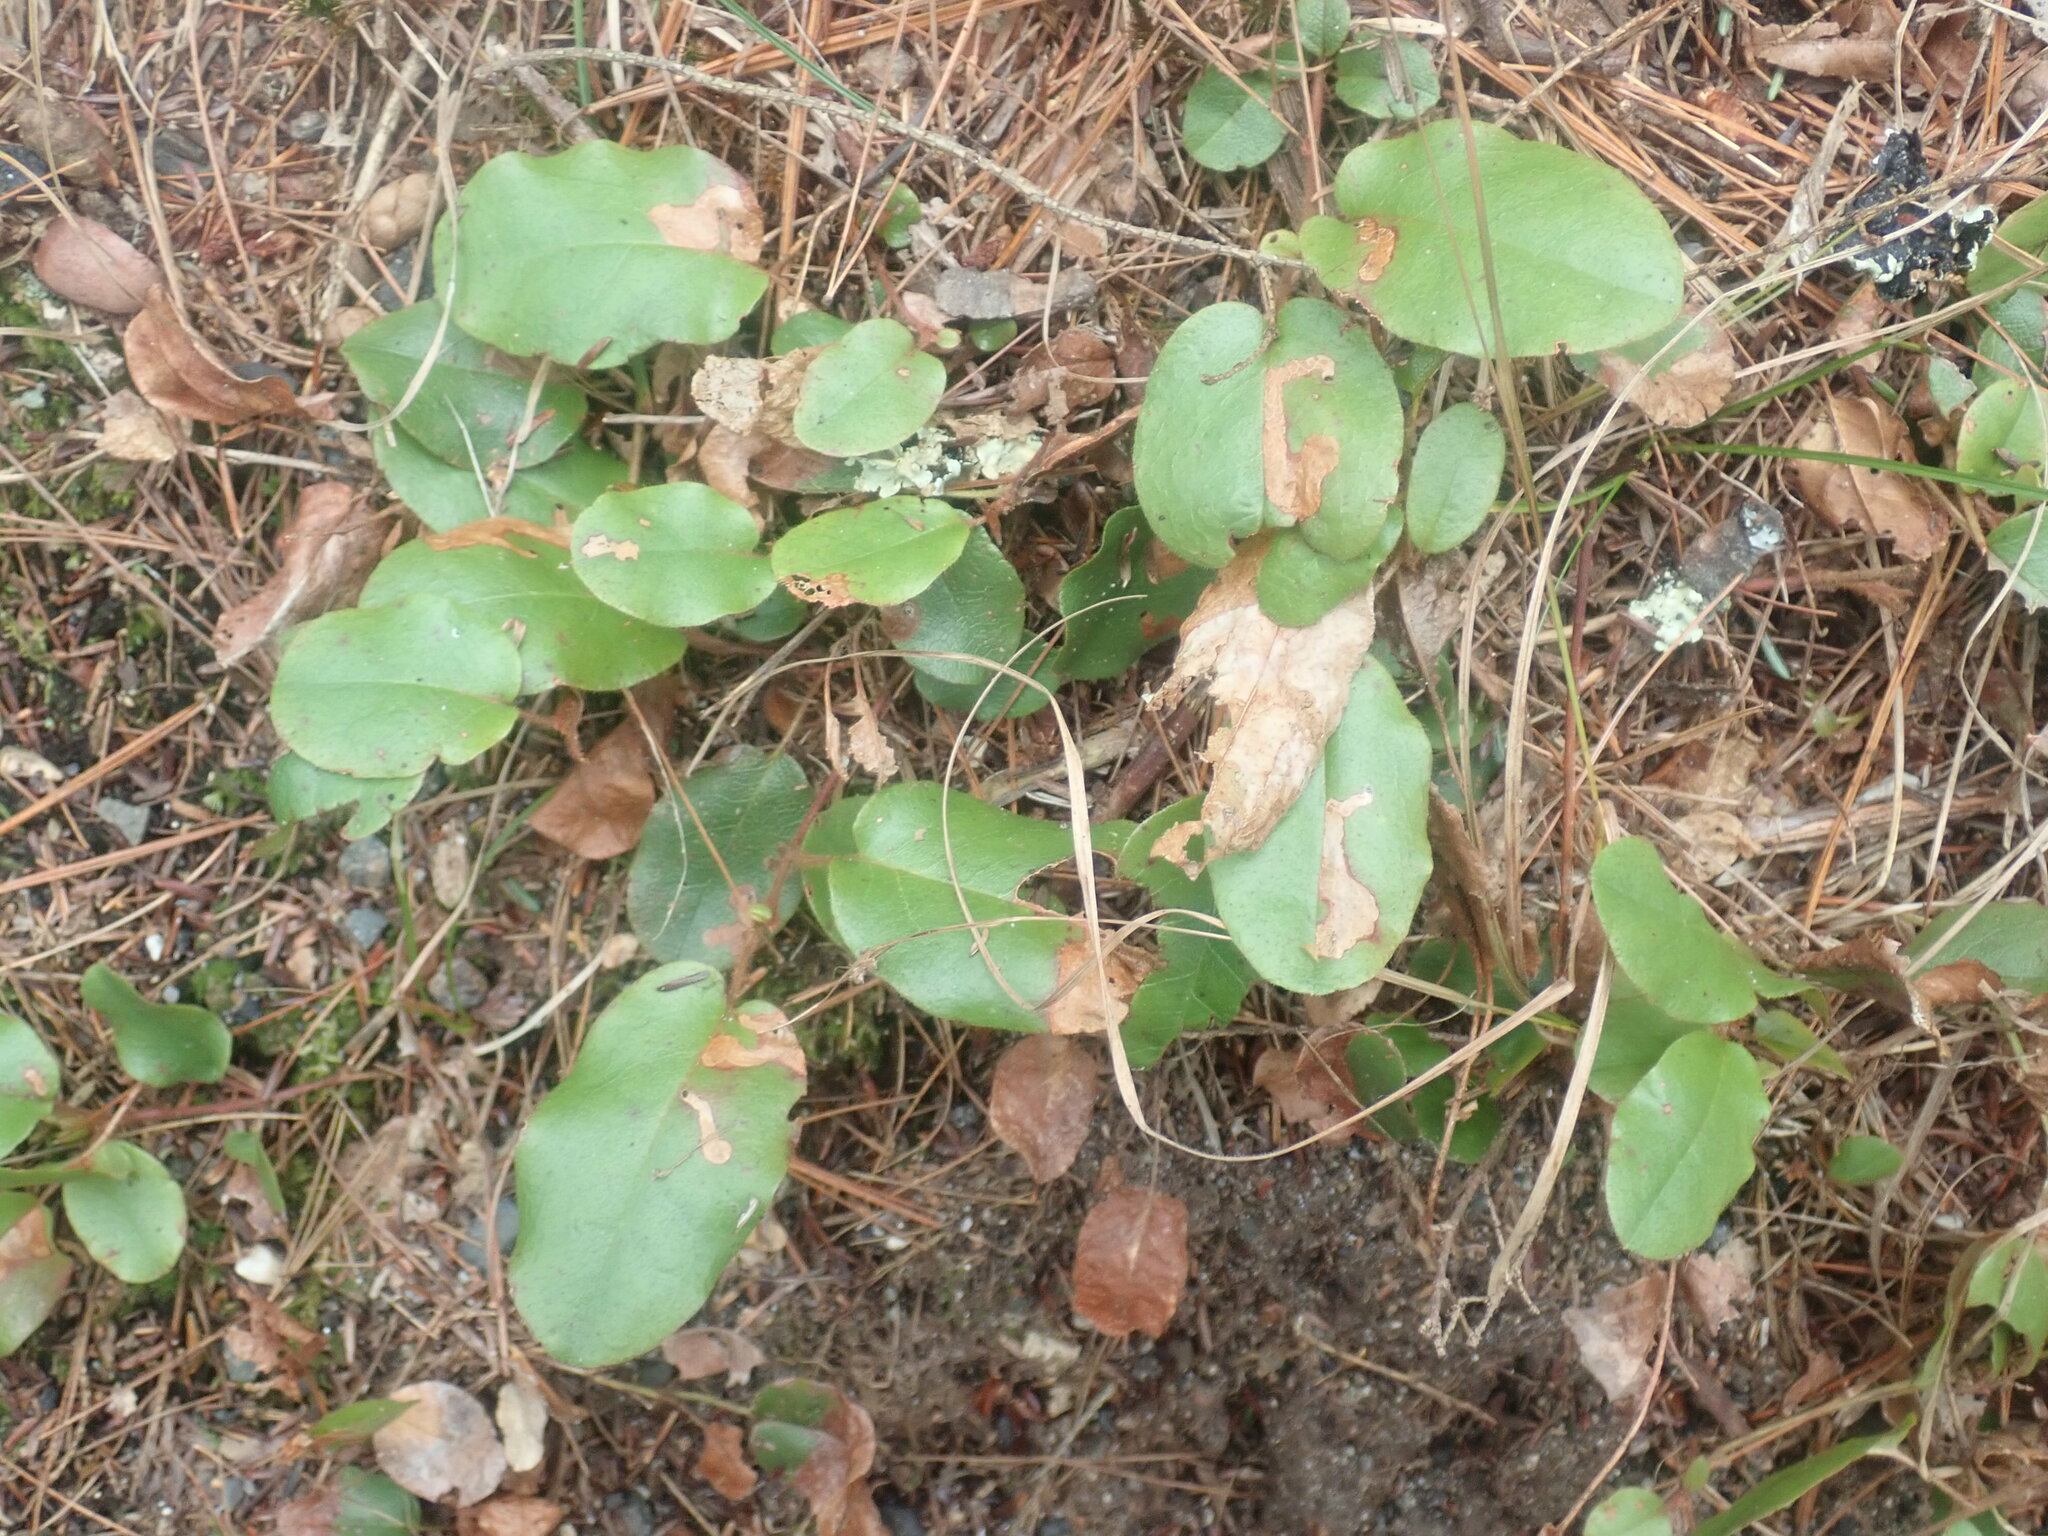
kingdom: Plantae
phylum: Tracheophyta
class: Magnoliopsida
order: Ericales
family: Ericaceae
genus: Epigaea
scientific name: Epigaea repens
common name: Gravelroot
